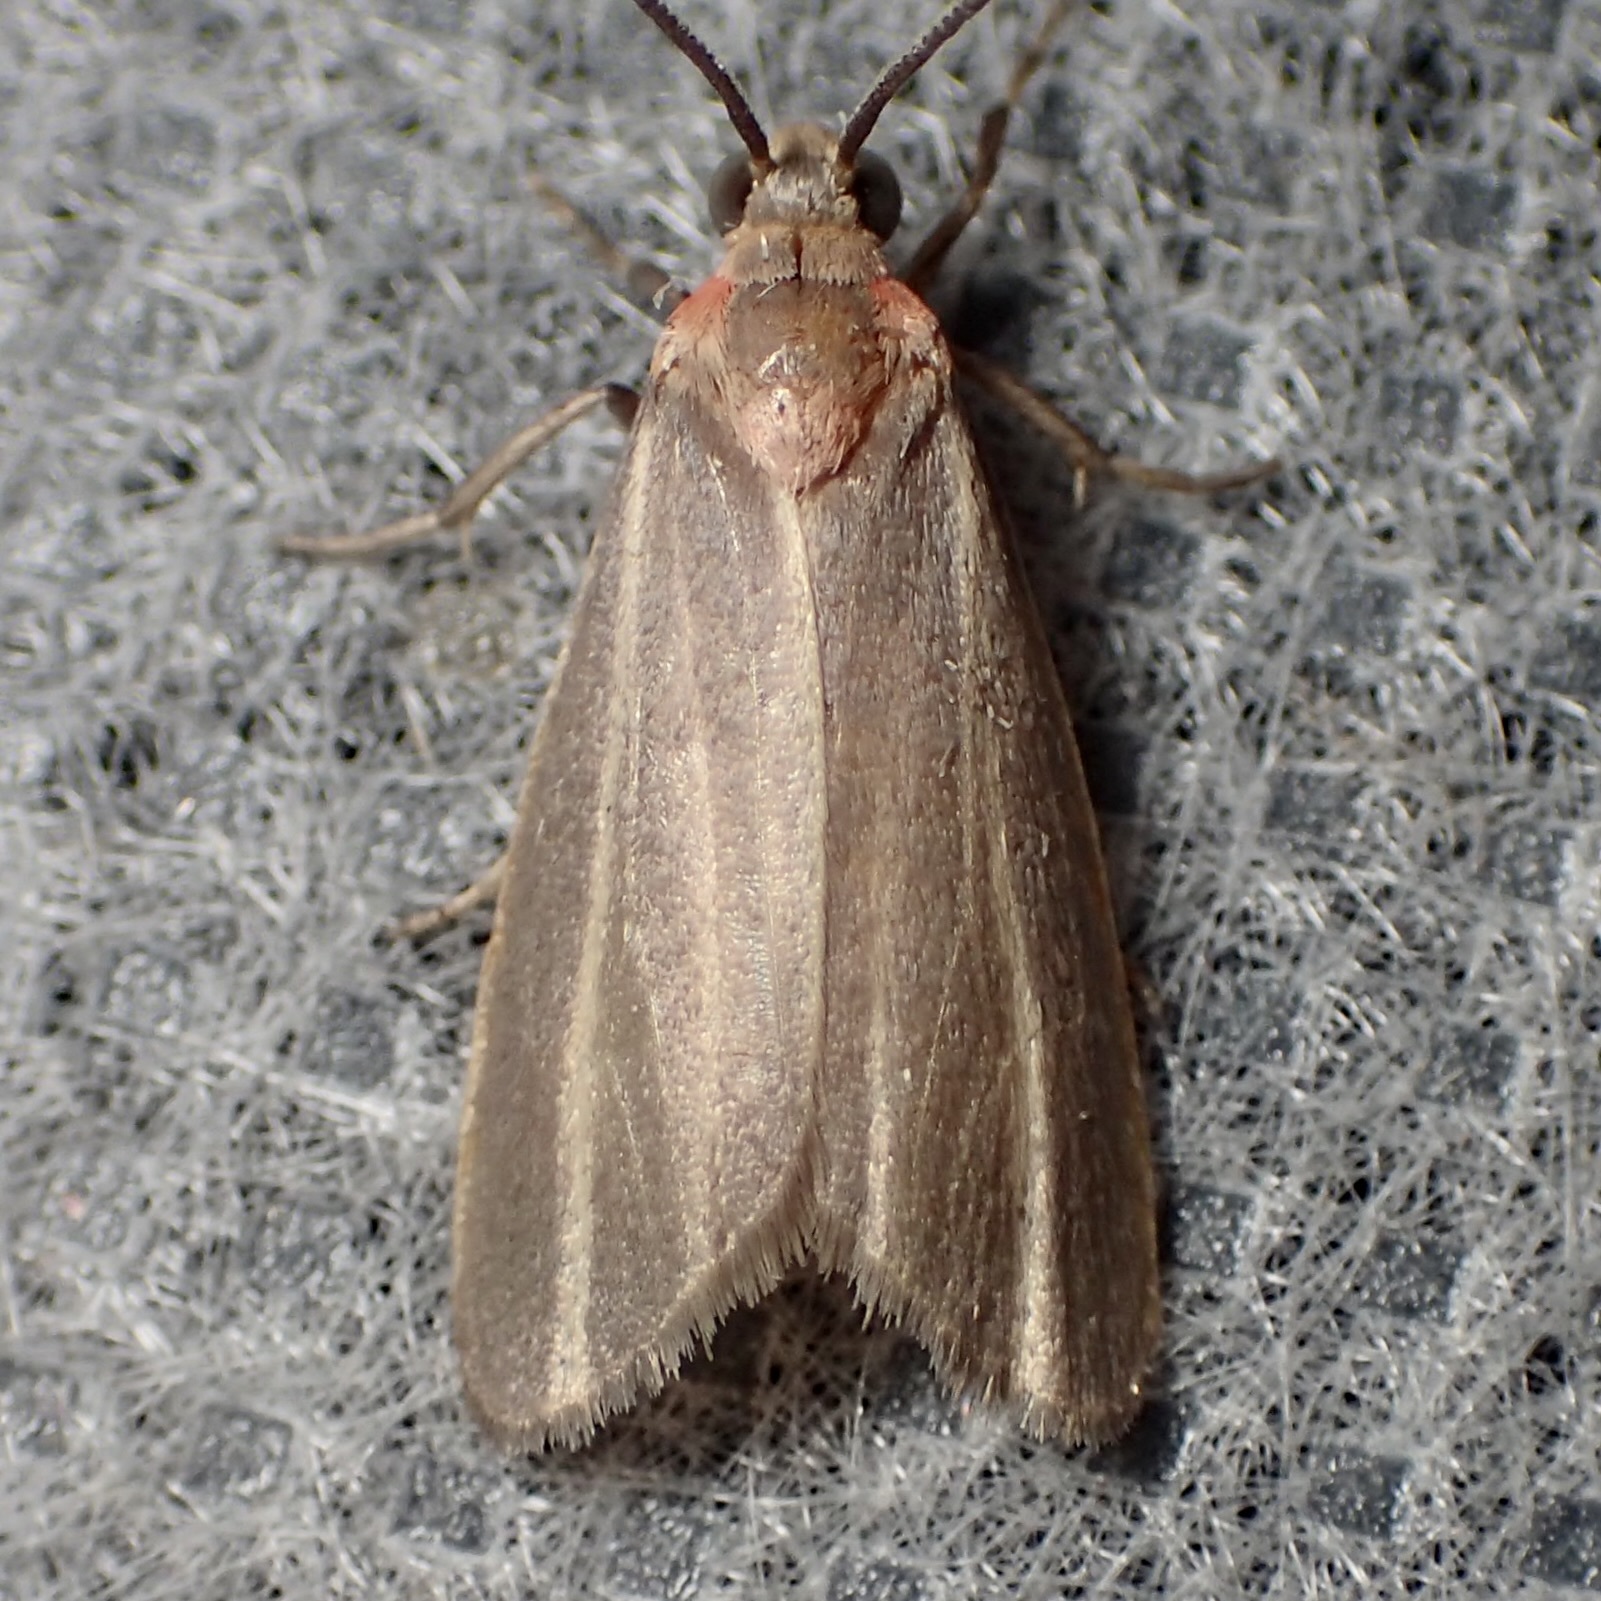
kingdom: Animalia
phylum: Arthropoda
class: Insecta
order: Lepidoptera
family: Erebidae
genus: Haematomis
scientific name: Haematomis uniformis
